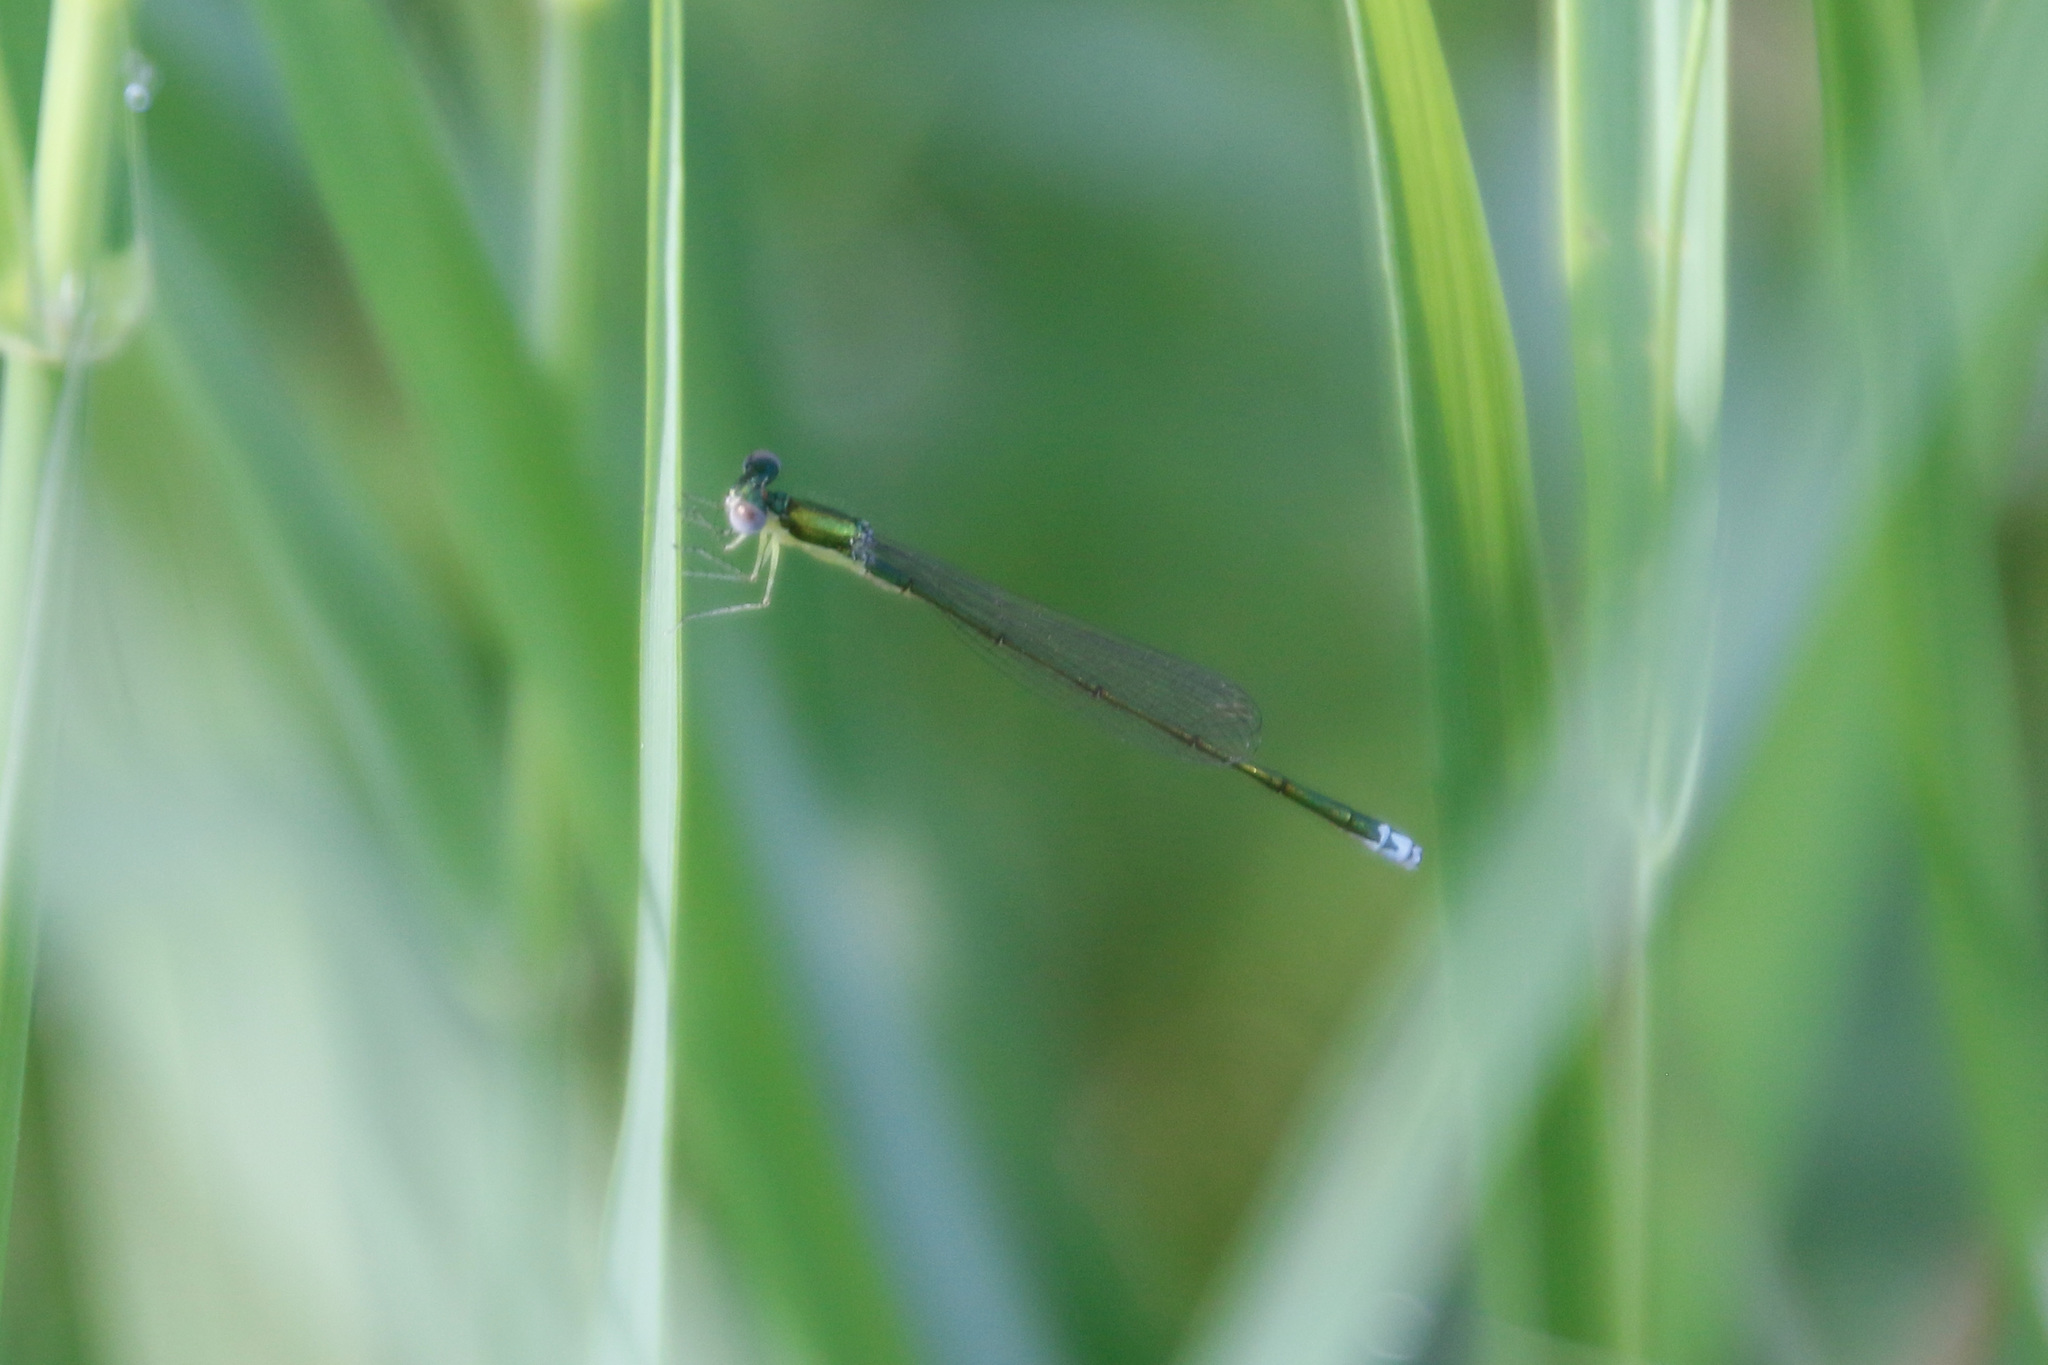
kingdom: Animalia
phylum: Arthropoda
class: Insecta
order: Odonata
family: Coenagrionidae
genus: Nehalennia
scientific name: Nehalennia irene
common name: Sedge sprite
